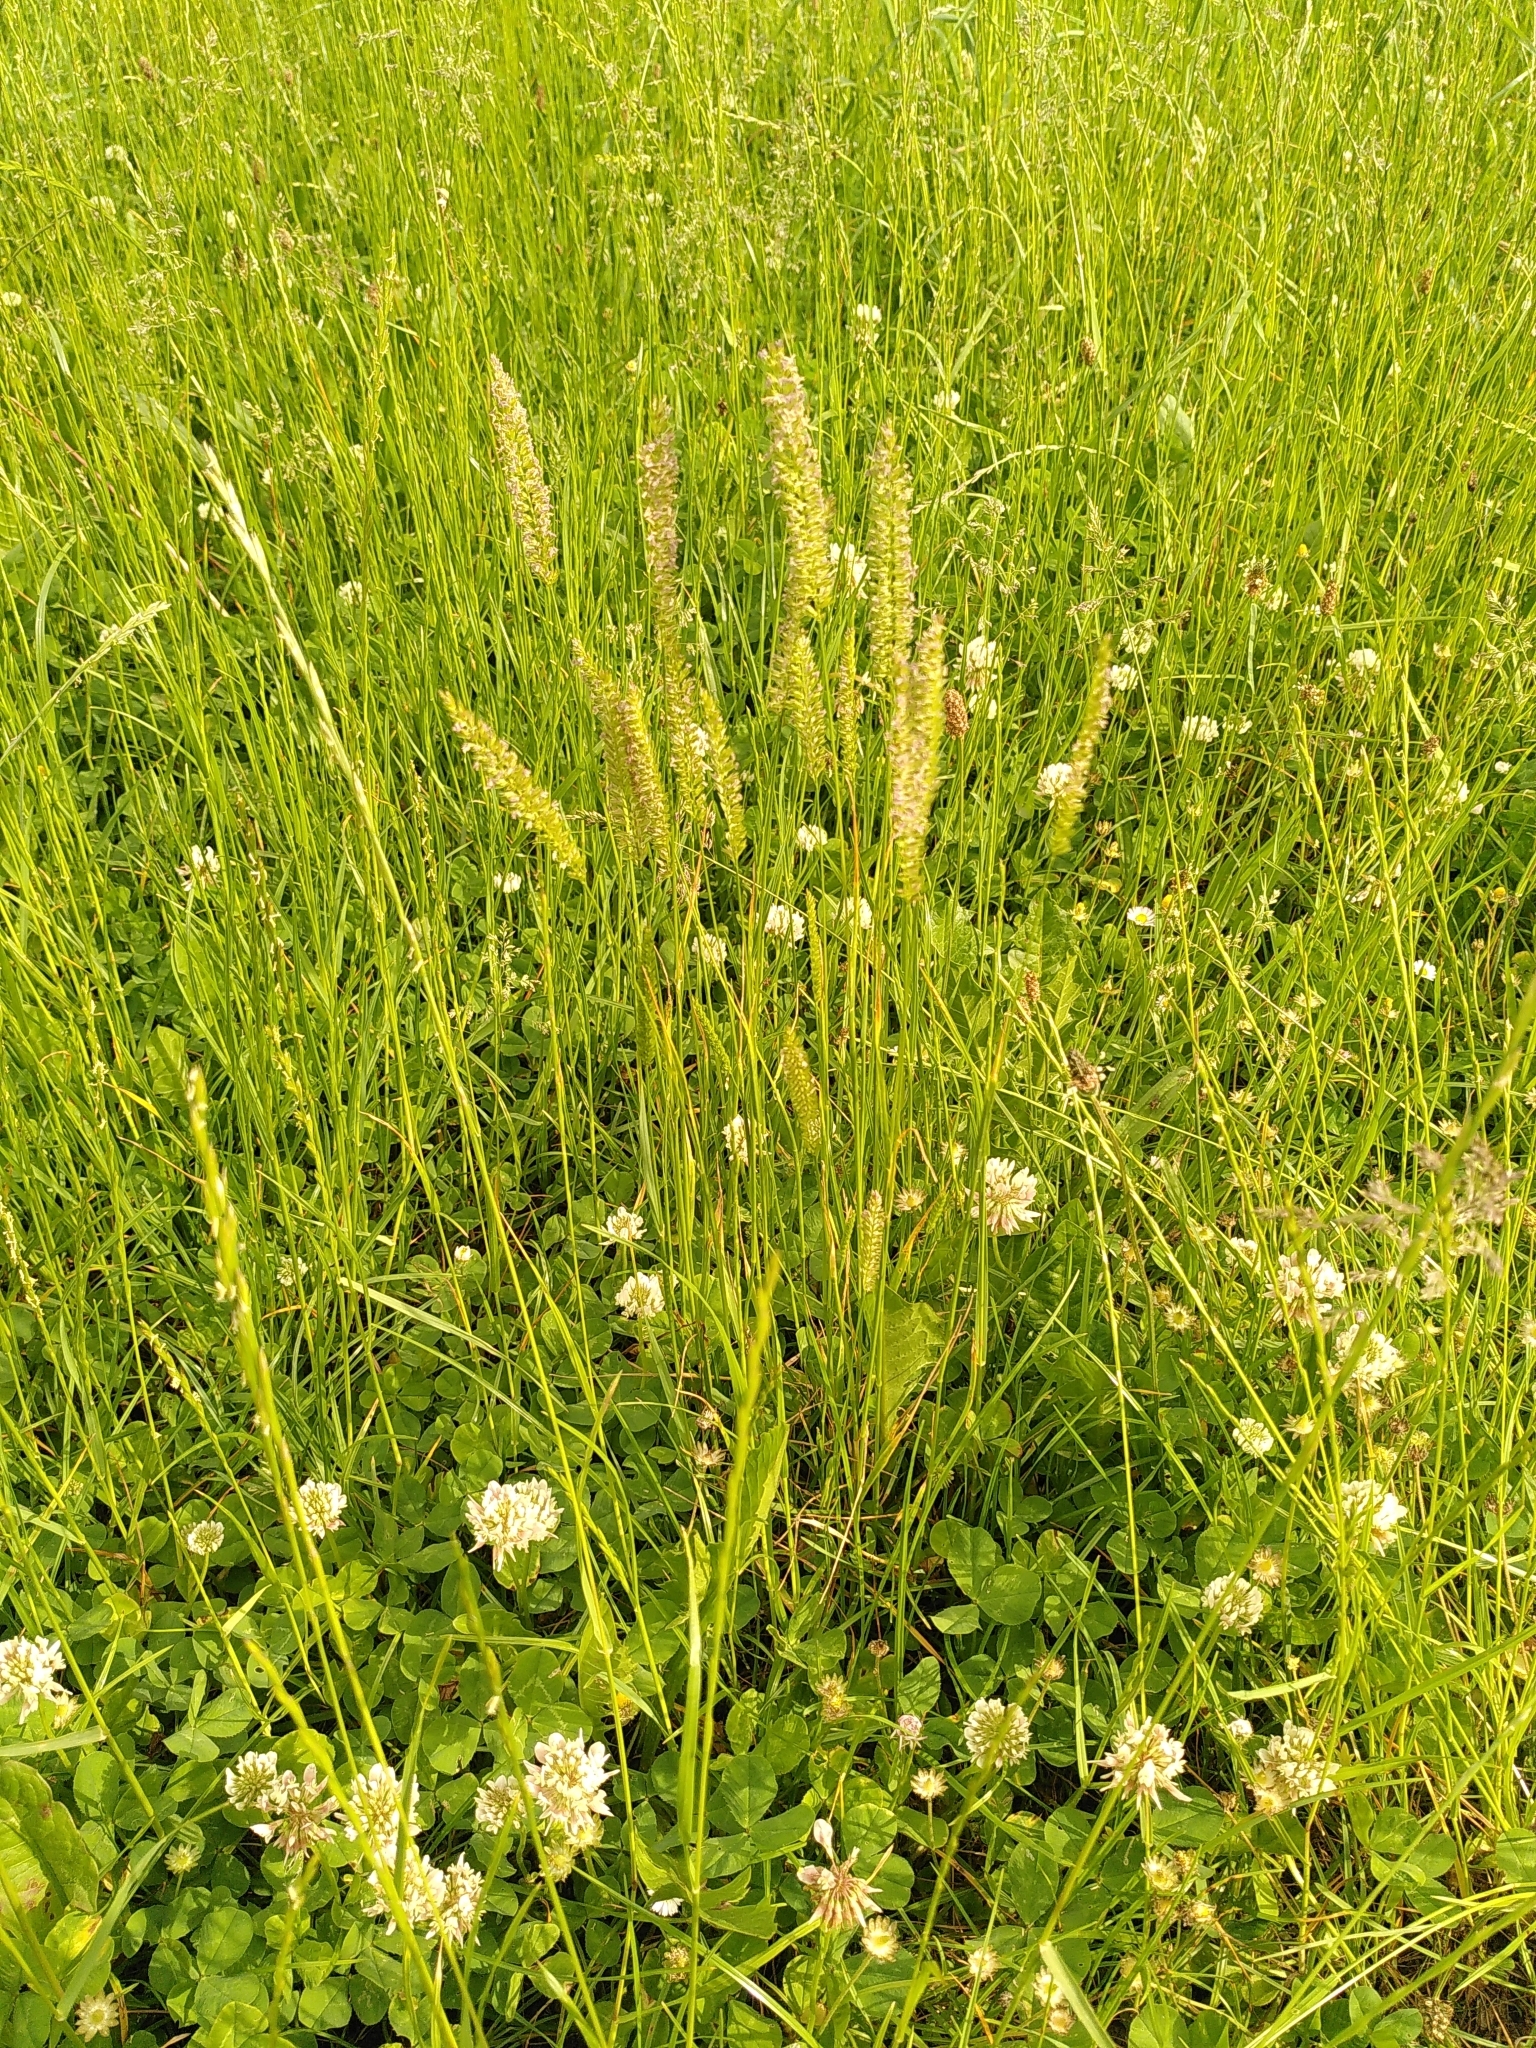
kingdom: Plantae
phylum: Tracheophyta
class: Liliopsida
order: Poales
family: Poaceae
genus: Cynosurus
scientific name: Cynosurus cristatus
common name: Crested dog's-tail
